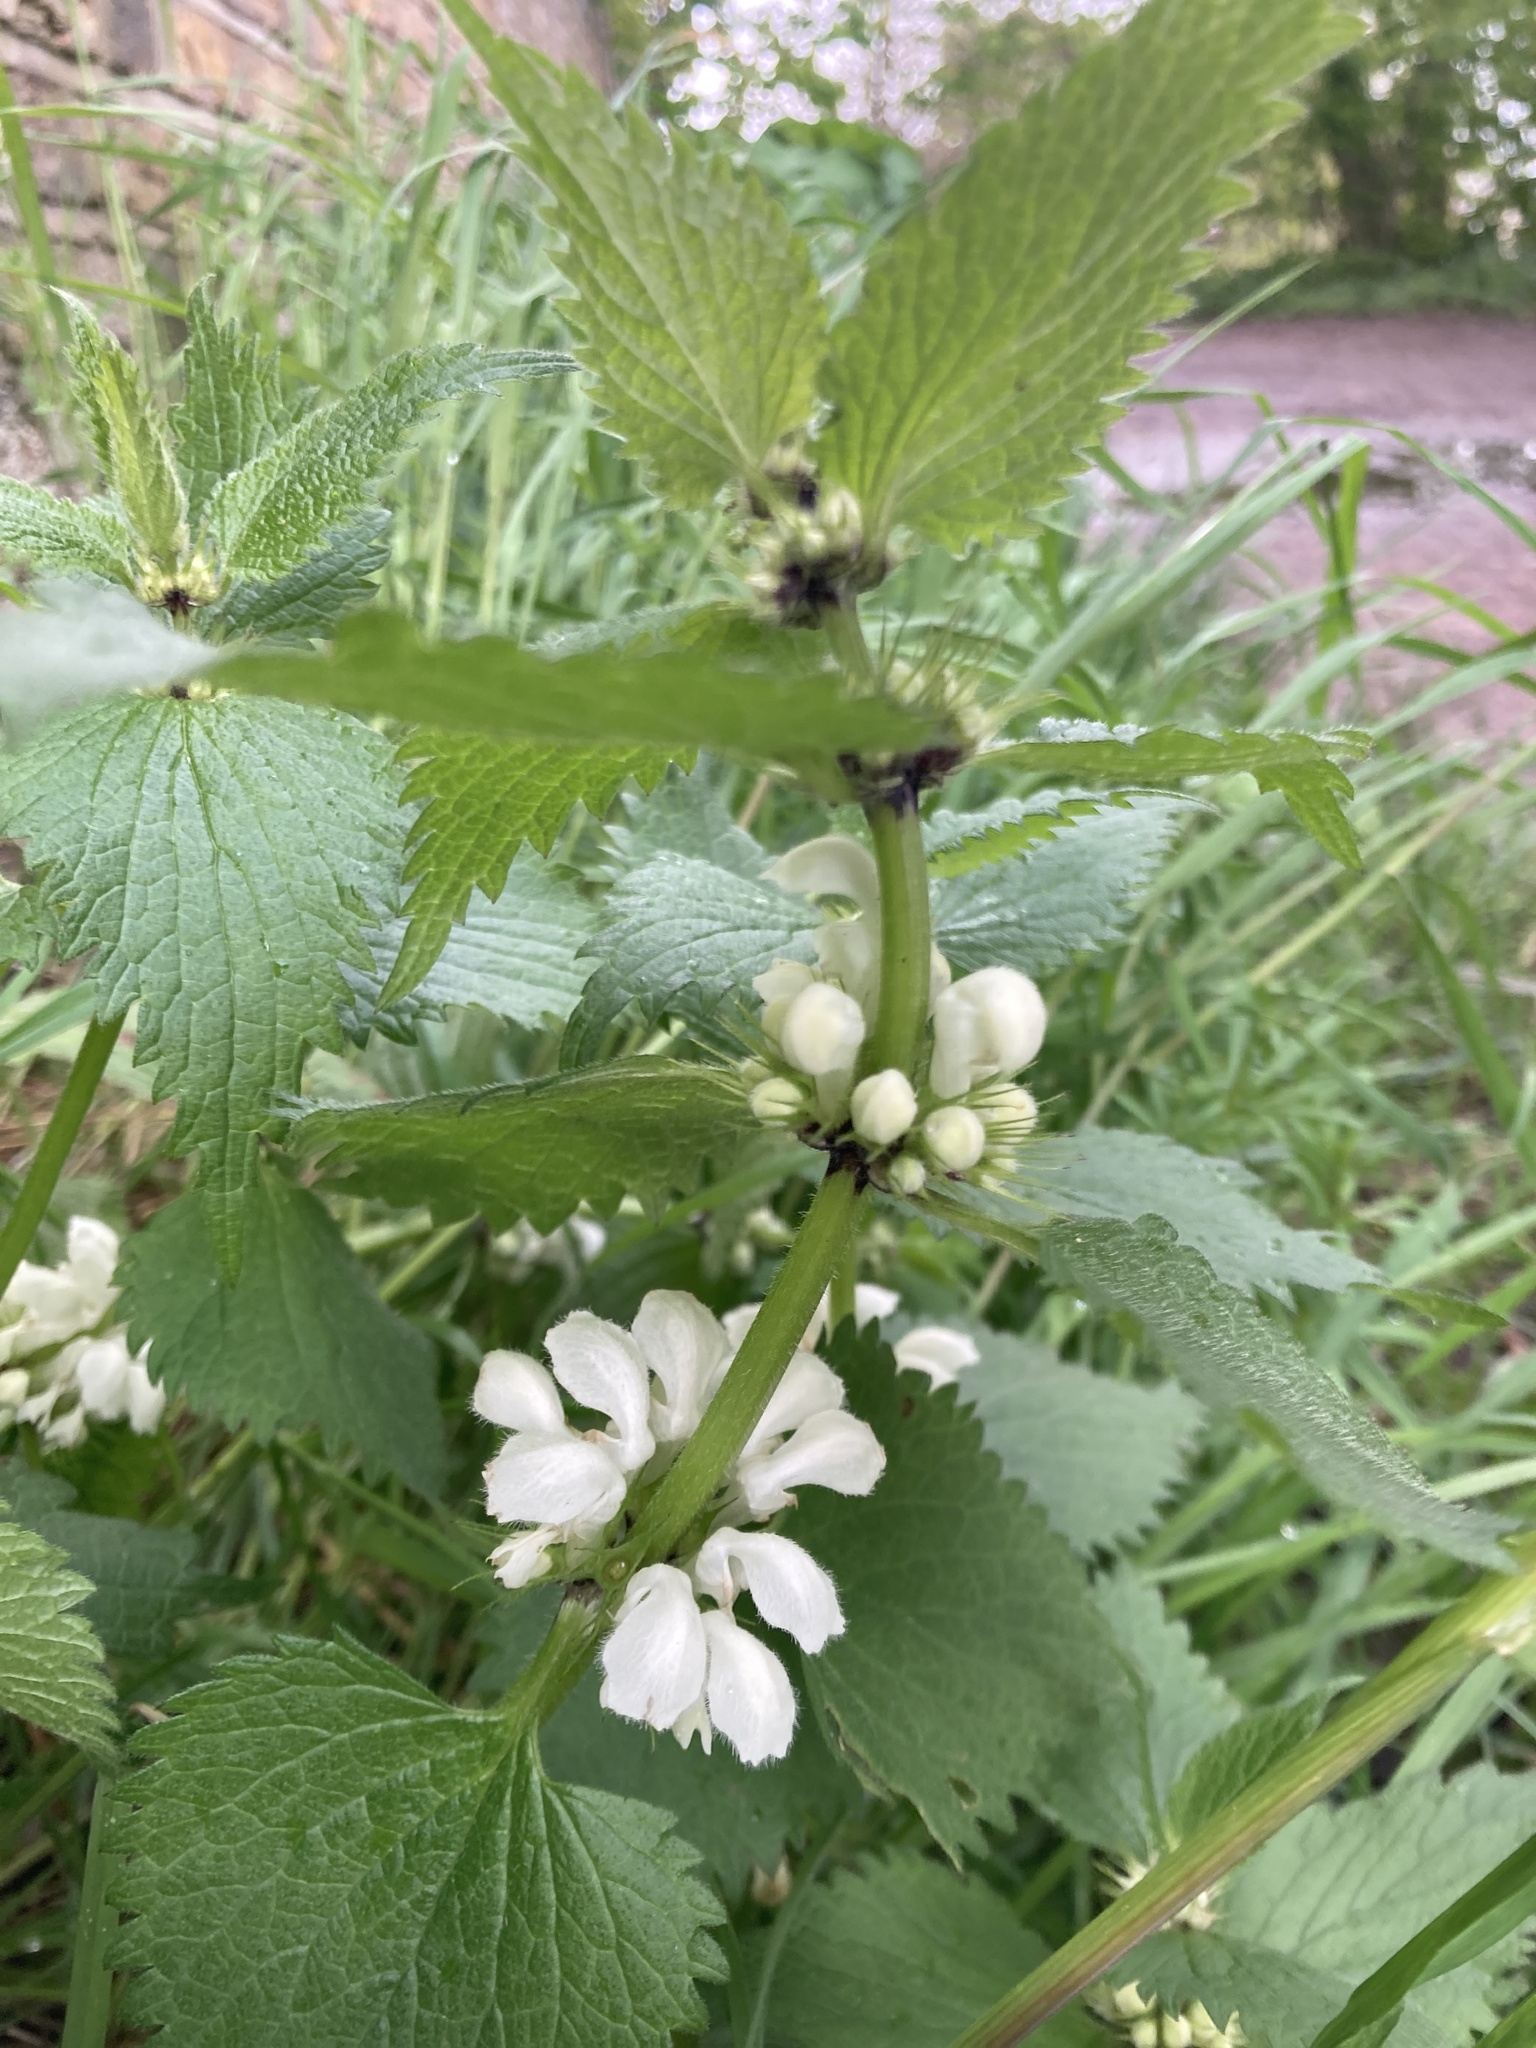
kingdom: Plantae
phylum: Tracheophyta
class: Magnoliopsida
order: Lamiales
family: Lamiaceae
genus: Lamium
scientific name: Lamium album
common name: White dead-nettle
